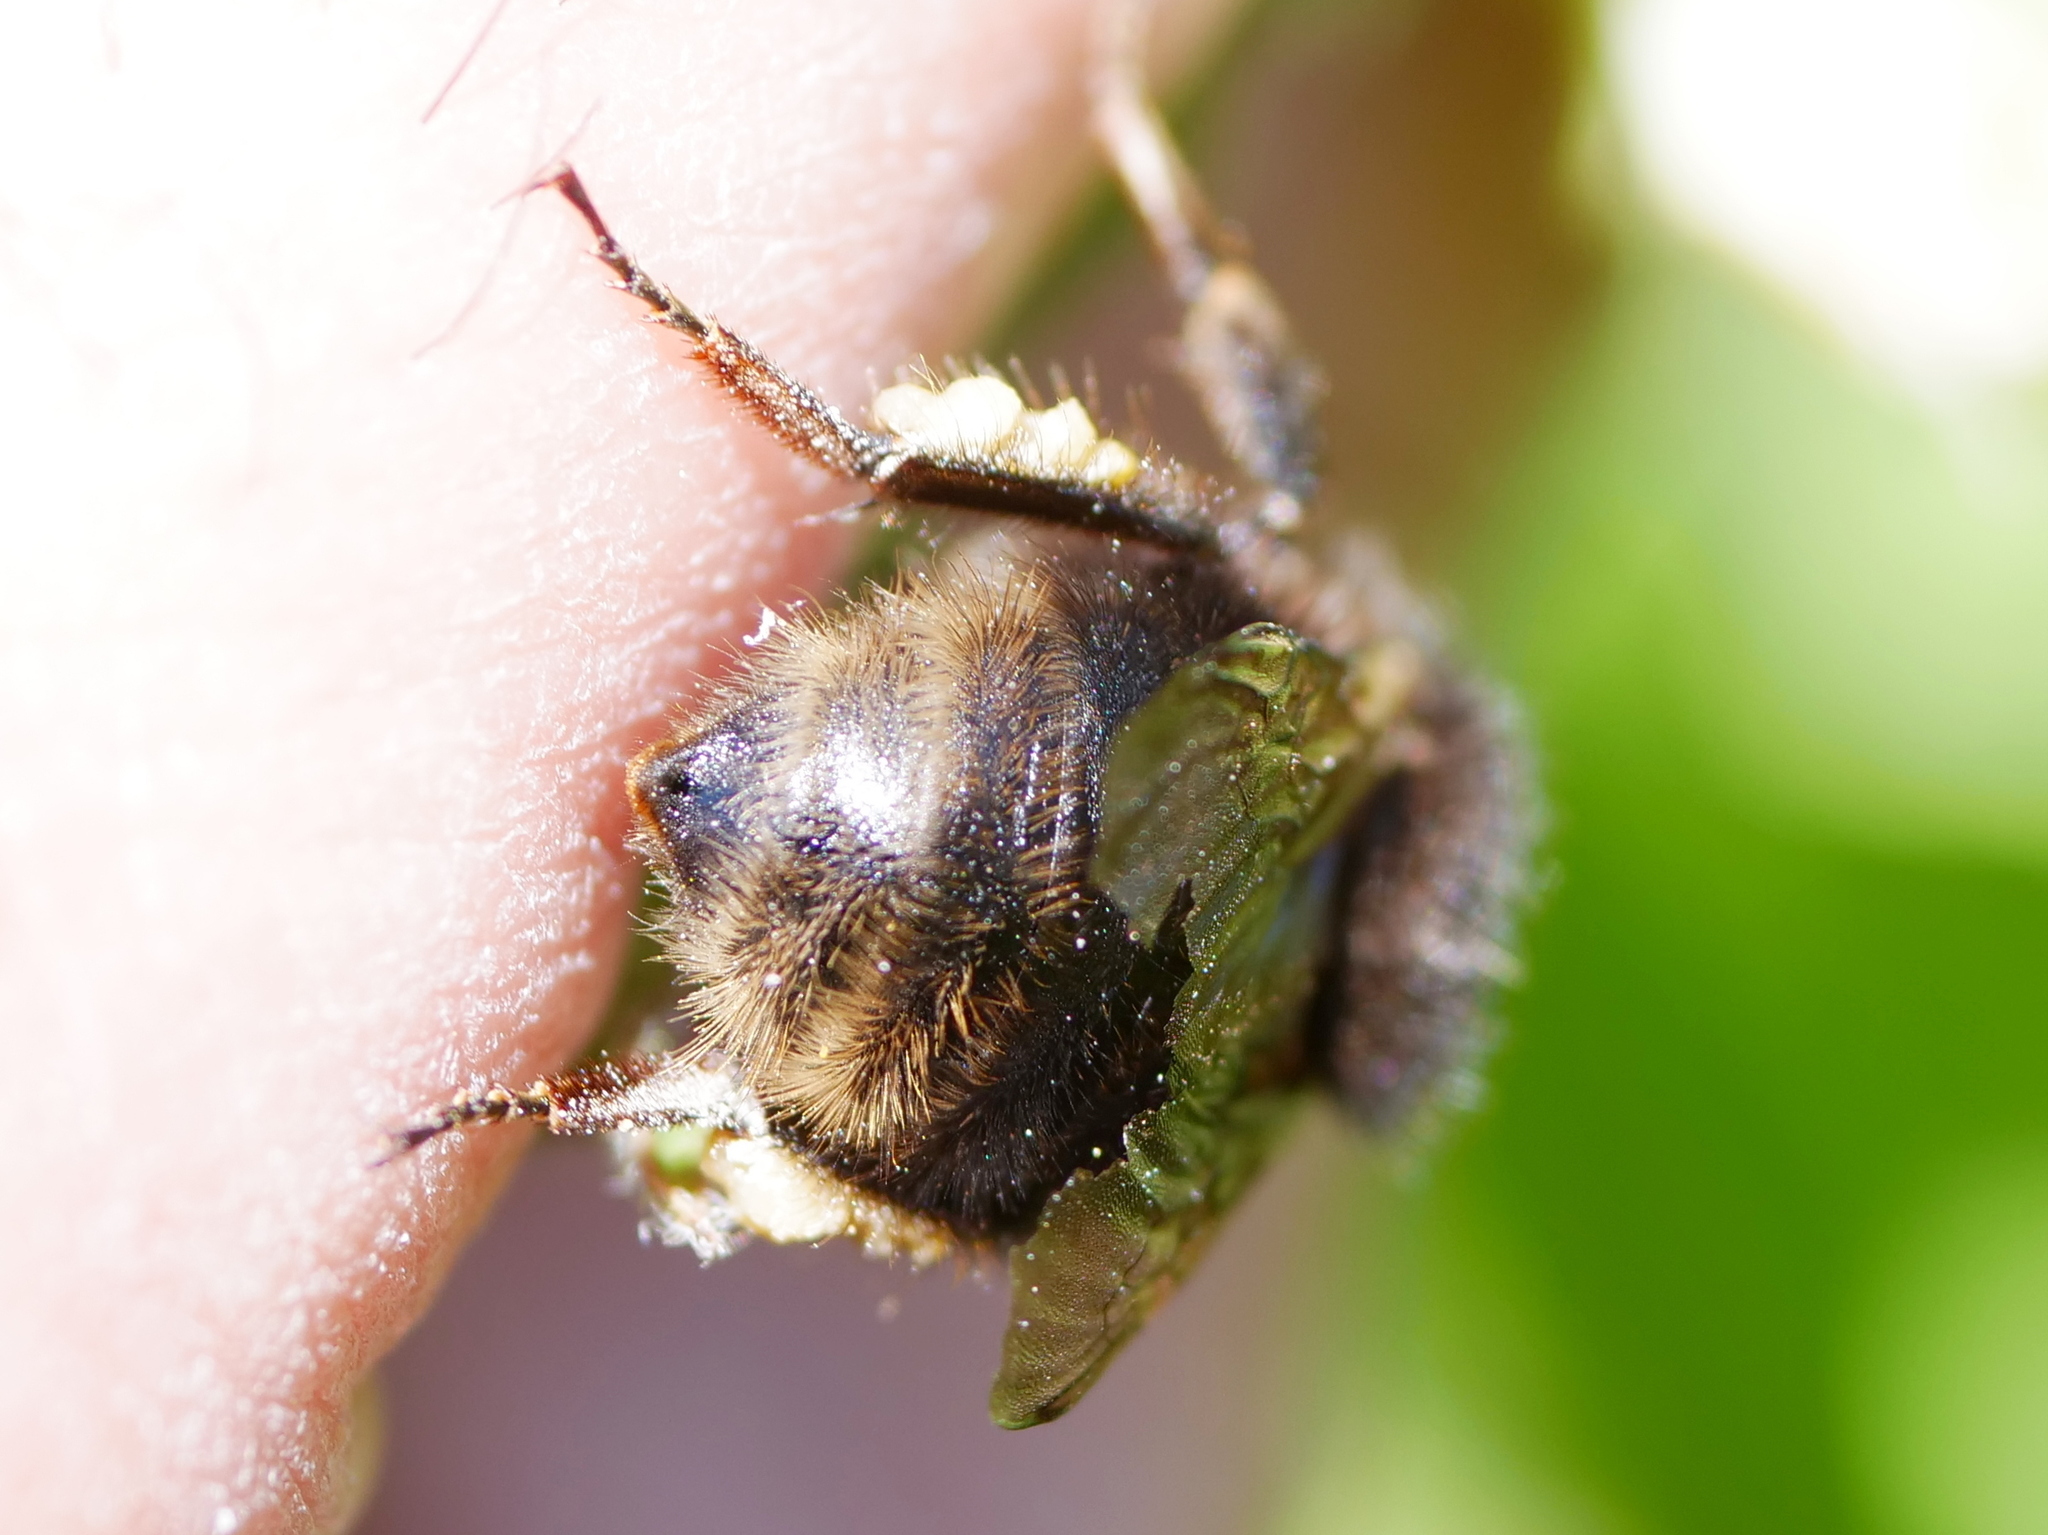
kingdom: Animalia
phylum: Arthropoda
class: Insecta
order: Hymenoptera
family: Apidae
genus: Bombus
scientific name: Bombus humilis
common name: Brown-banded carder-bee
